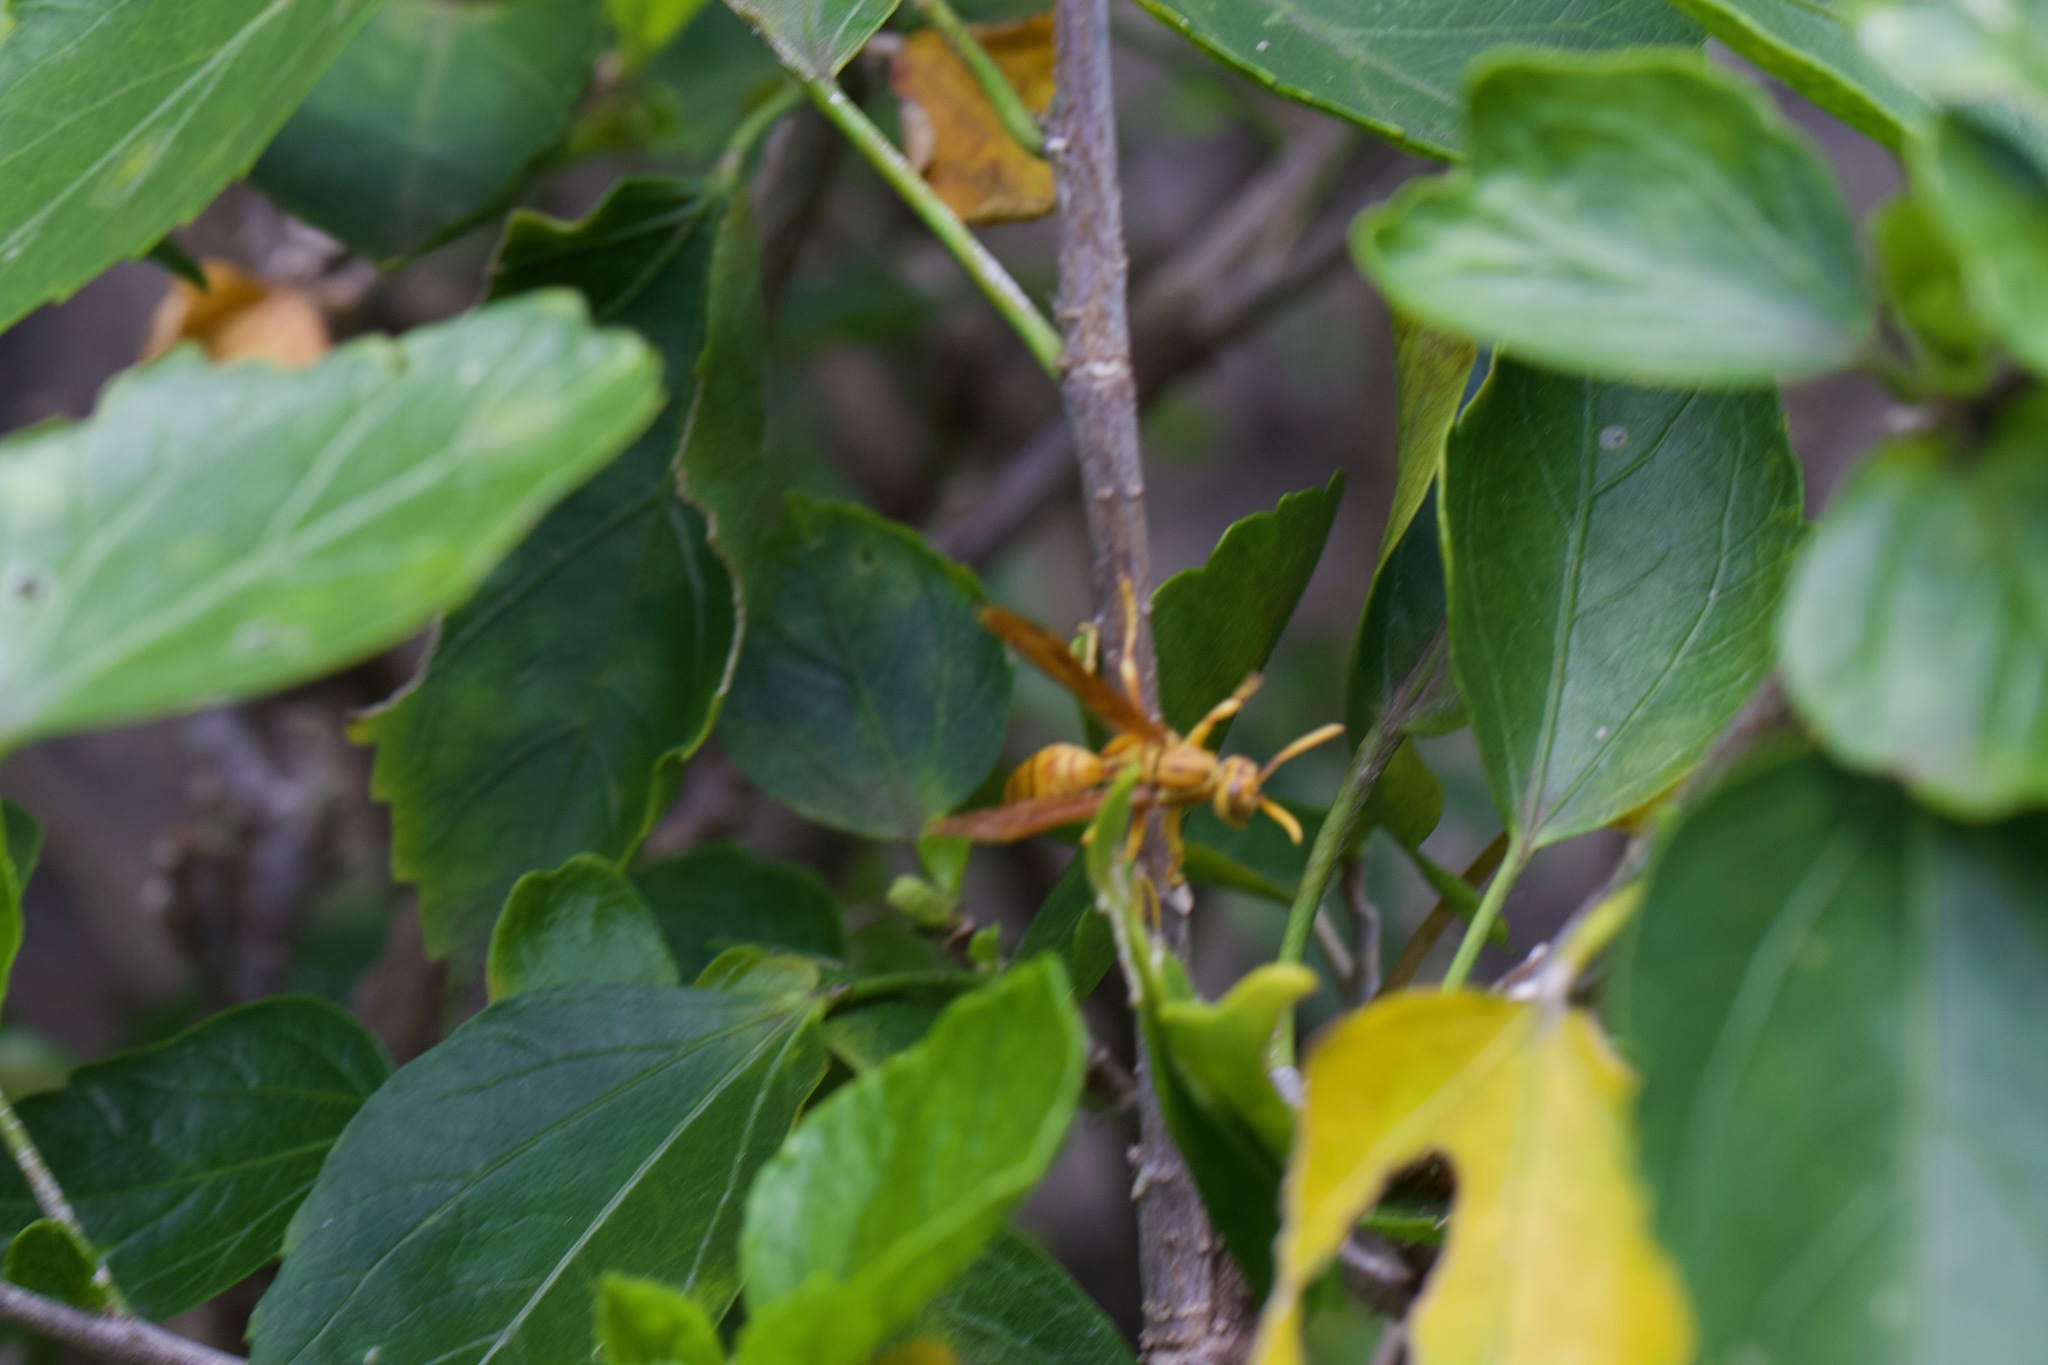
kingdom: Animalia
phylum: Arthropoda
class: Insecta
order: Hymenoptera
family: Eumenidae
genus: Polistes
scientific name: Polistes olivaceus
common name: Paper wasp
